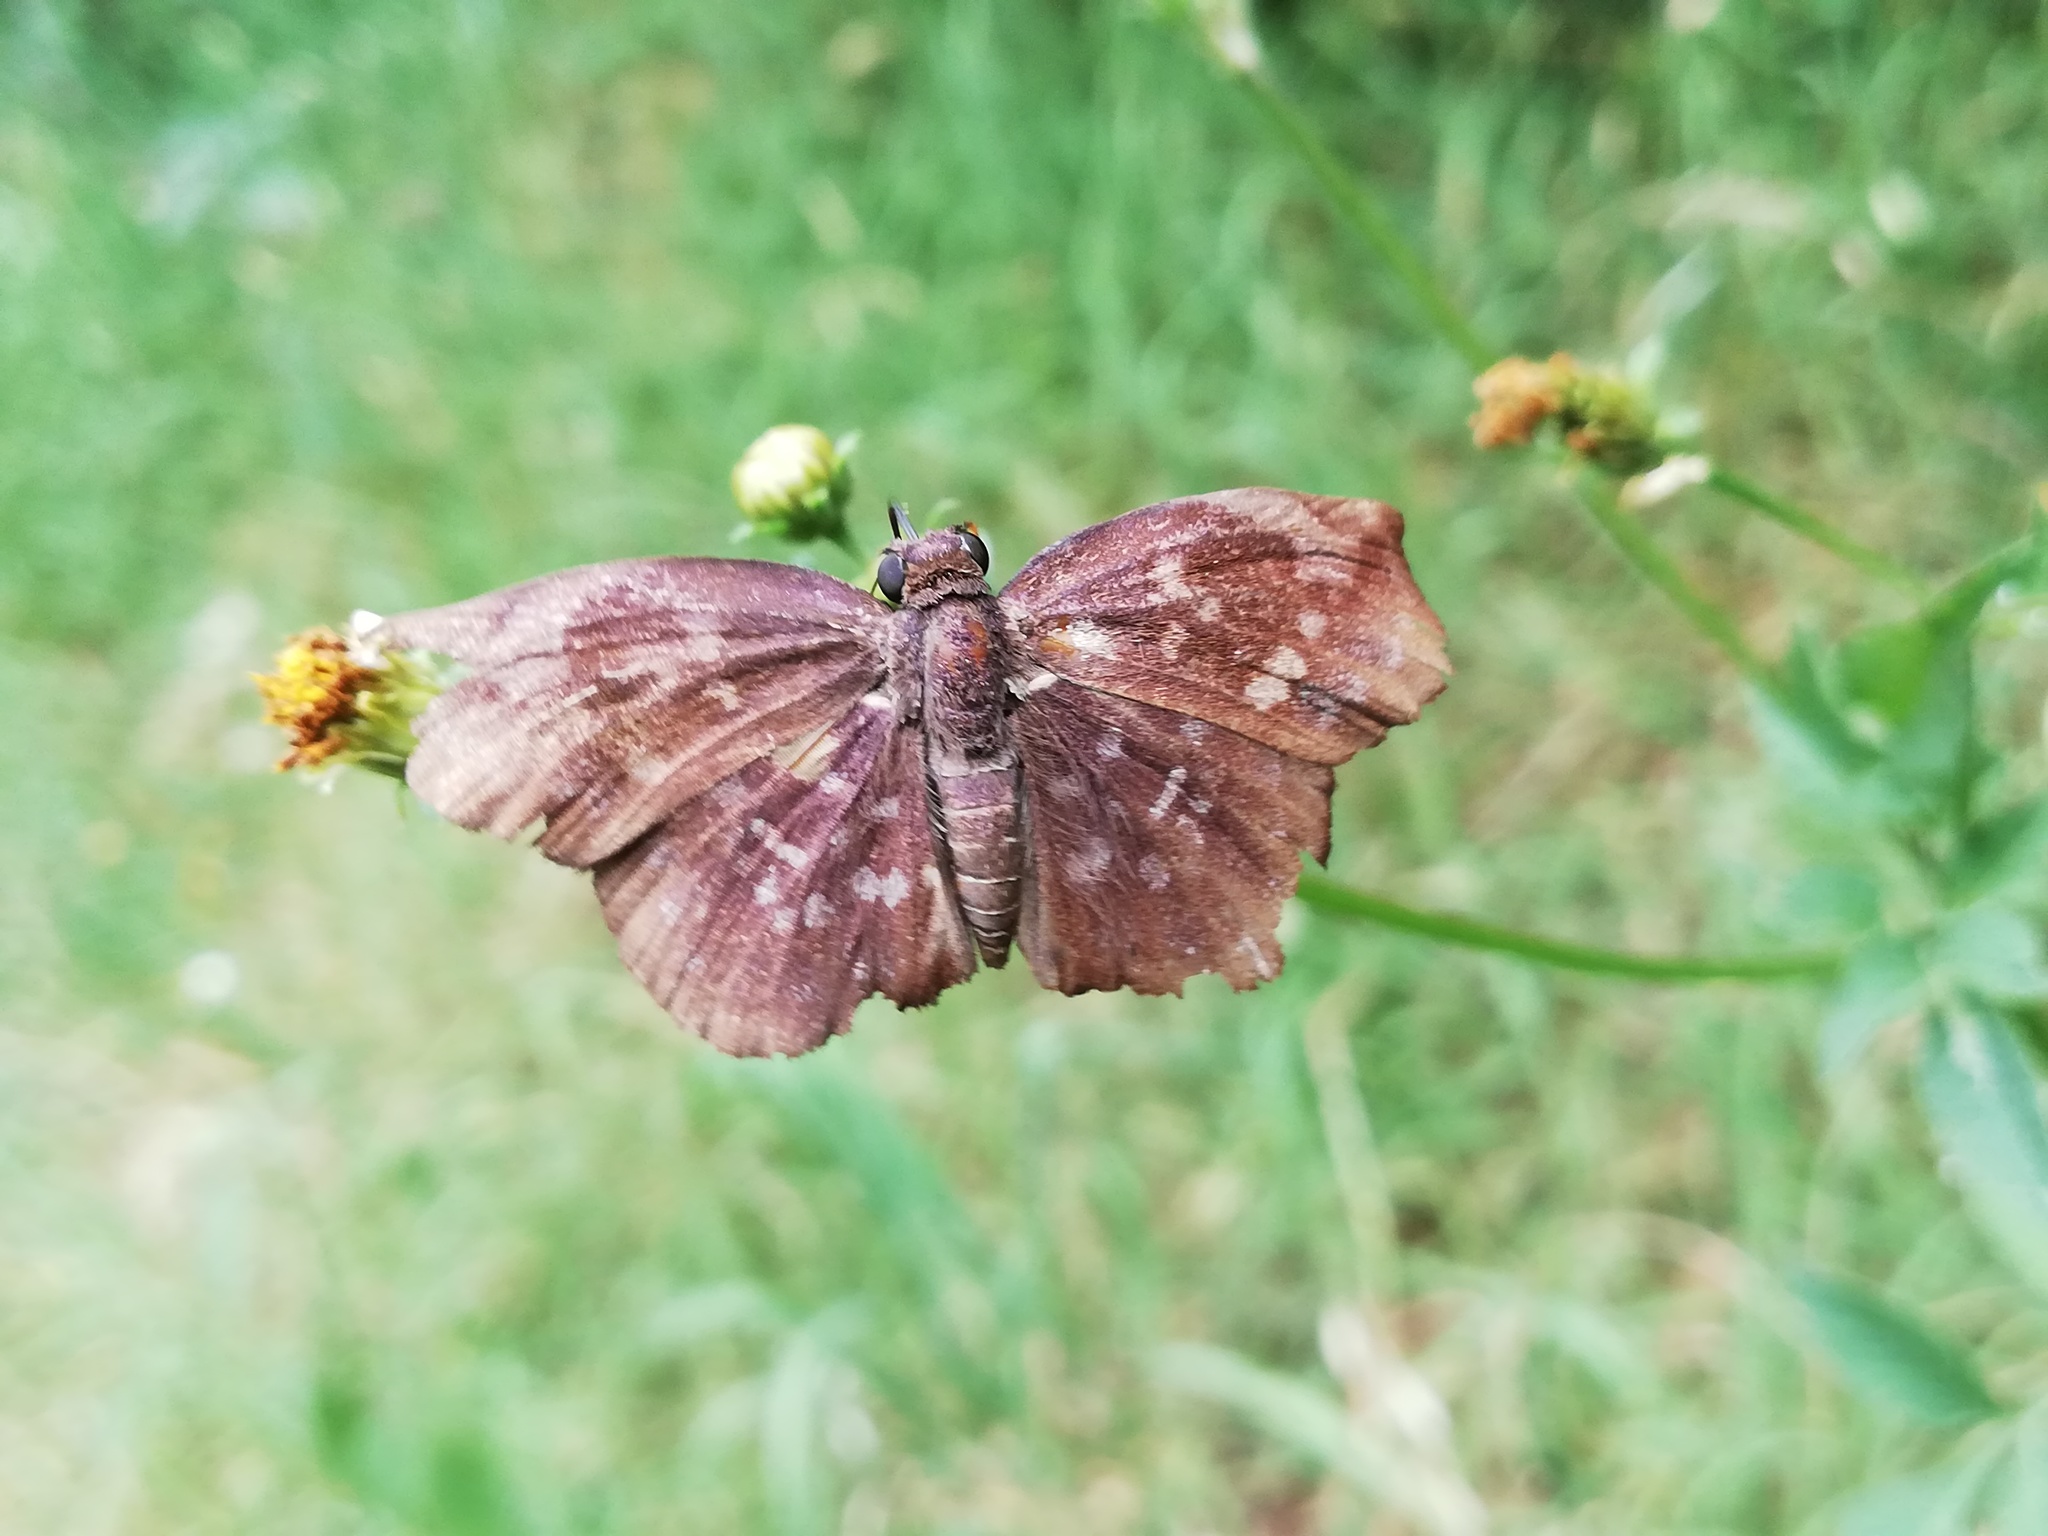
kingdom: Animalia
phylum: Arthropoda
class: Insecta
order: Lepidoptera
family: Hesperiidae
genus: Achlyodes
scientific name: Achlyodes thraso
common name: Sickle-winged skipper
